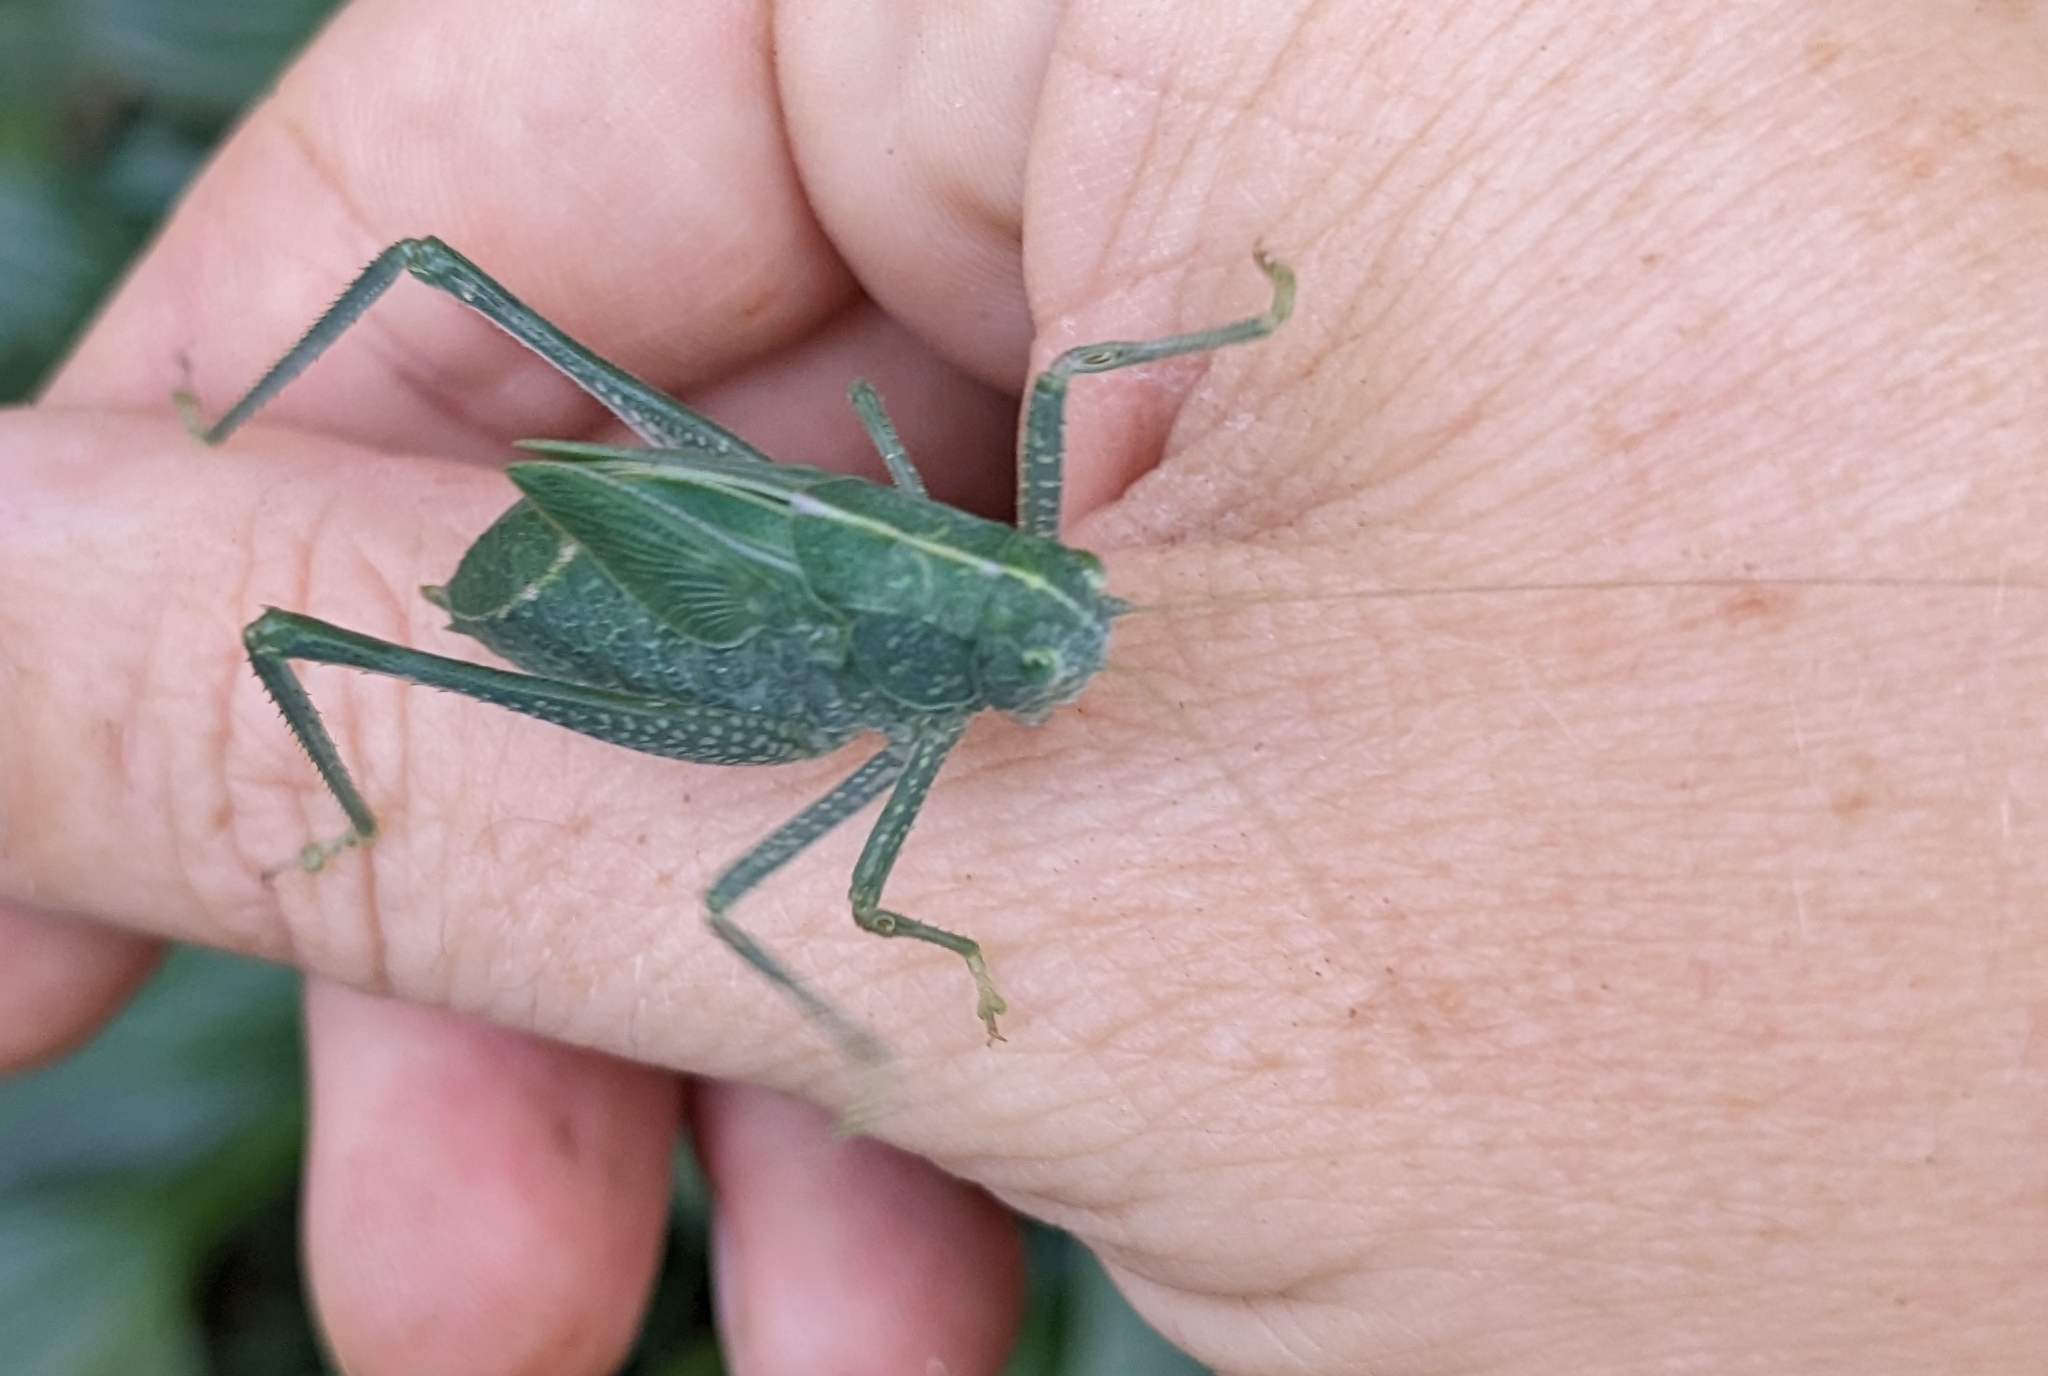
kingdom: Animalia
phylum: Arthropoda
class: Insecta
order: Orthoptera
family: Tettigoniidae
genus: Microcentrum
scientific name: Microcentrum rhombifolium
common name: Broad-winged katydid
